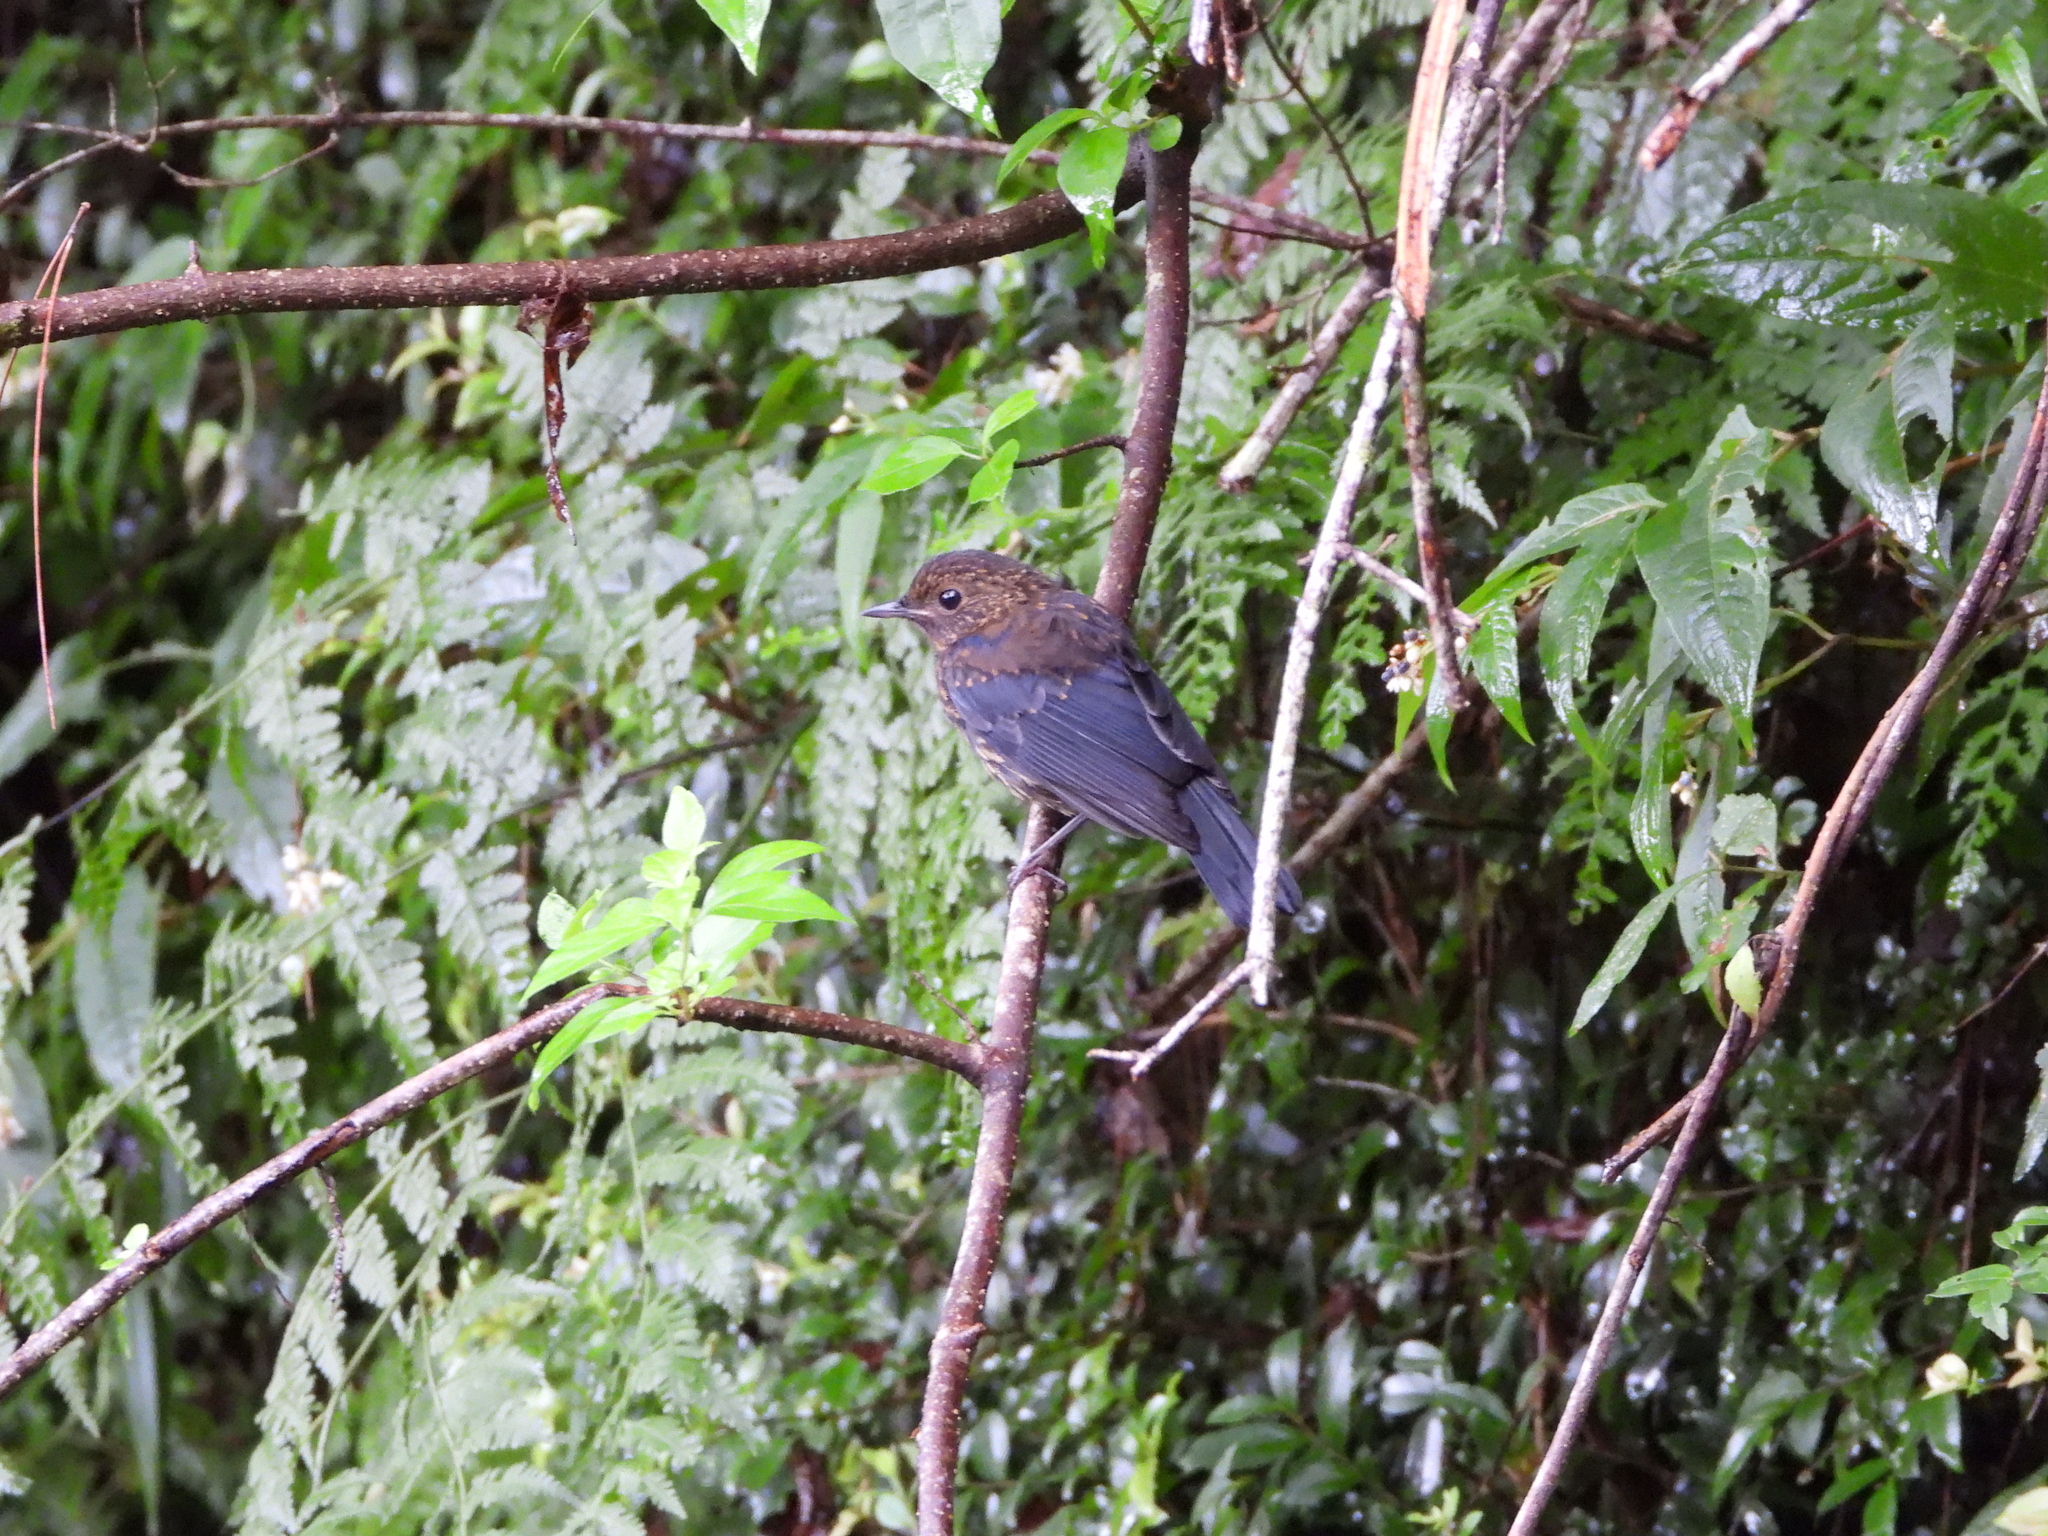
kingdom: Animalia
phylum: Chordata
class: Aves
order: Passeriformes
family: Muscicapidae
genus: Myiomela
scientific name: Myiomela leucura
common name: White-tailed robin
